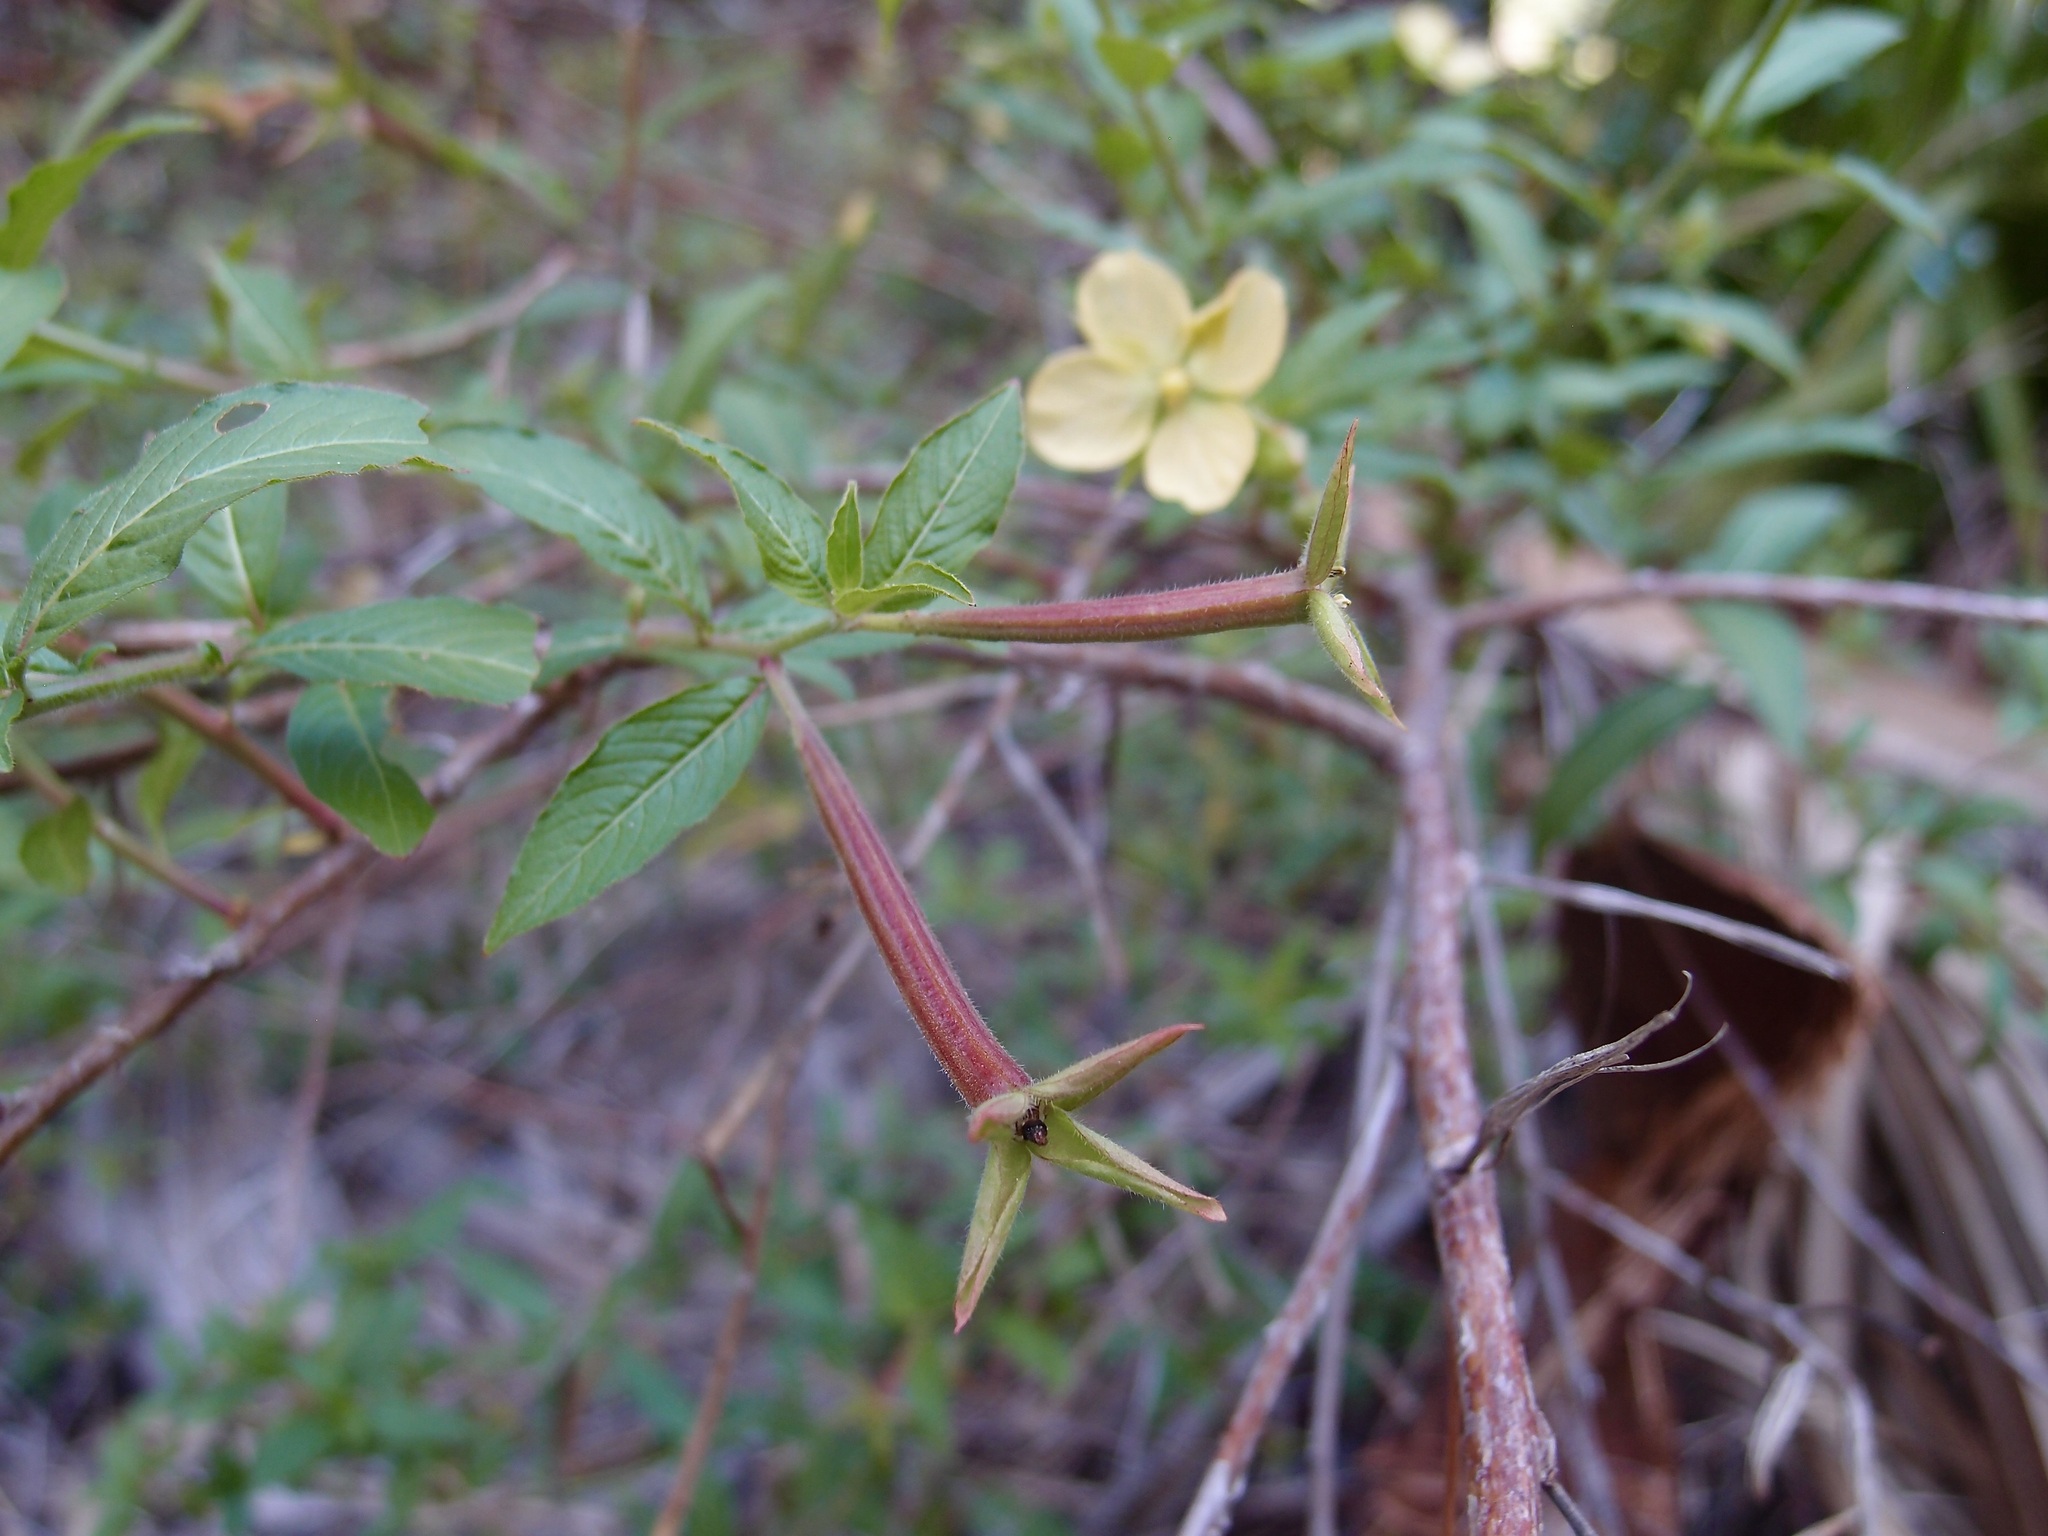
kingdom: Plantae
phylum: Tracheophyta
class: Magnoliopsida
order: Myrtales
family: Onagraceae
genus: Ludwigia
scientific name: Ludwigia octovalvis
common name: Water-primrose
